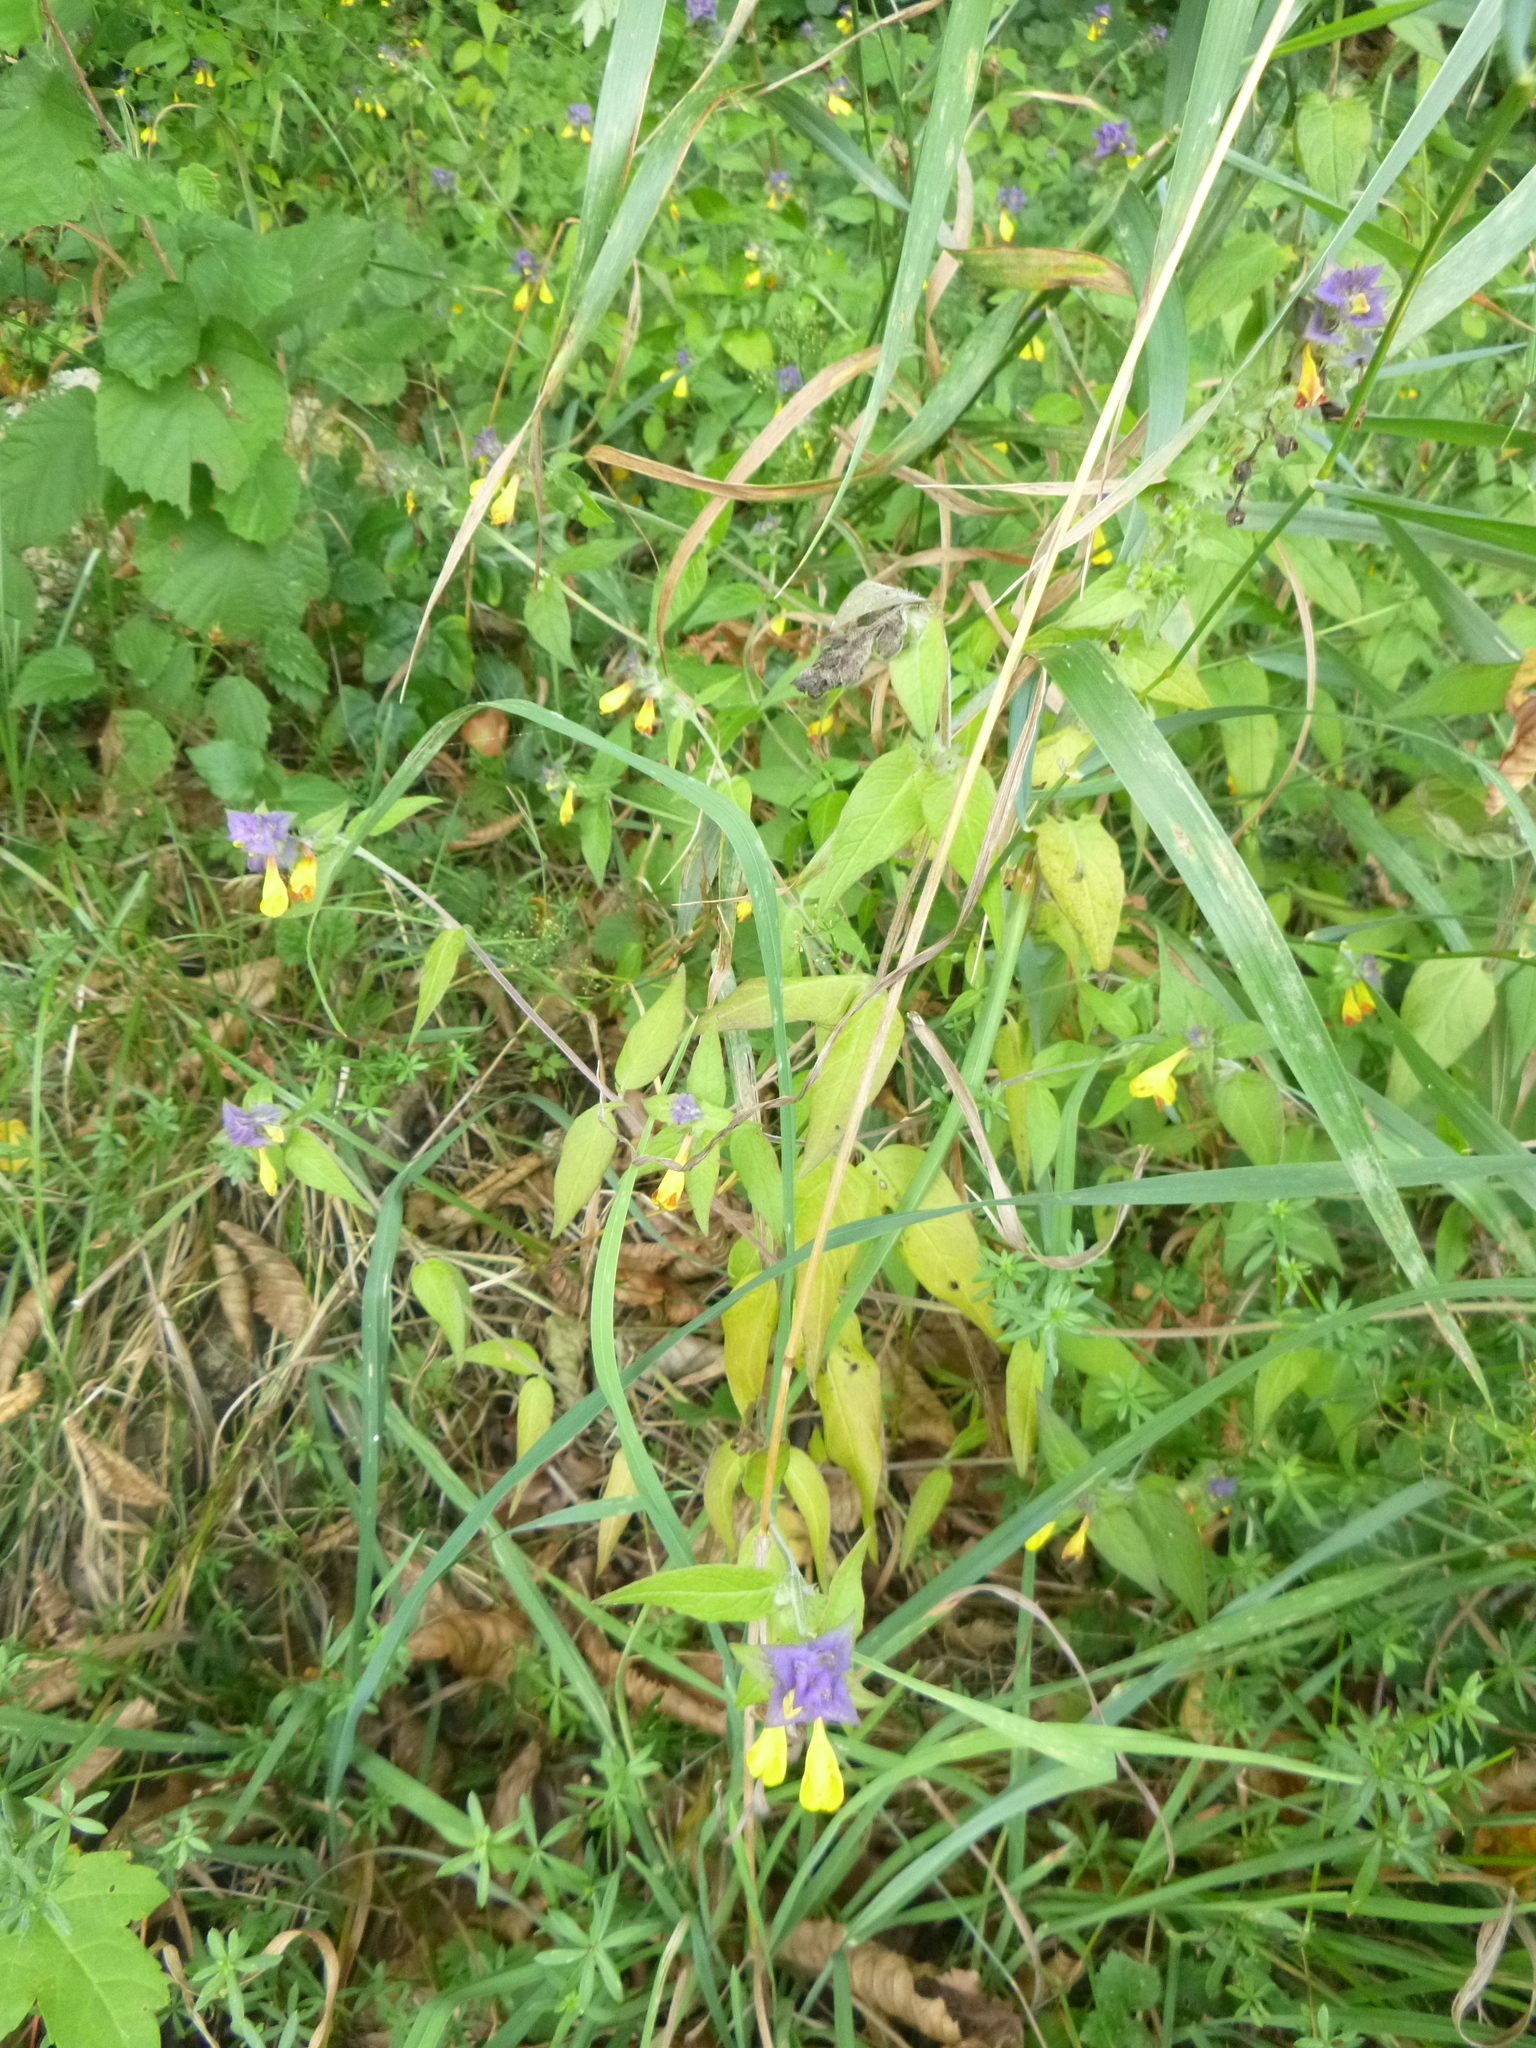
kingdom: Plantae
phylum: Tracheophyta
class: Magnoliopsida
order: Lamiales
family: Orobanchaceae
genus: Melampyrum
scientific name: Melampyrum nemorosum
